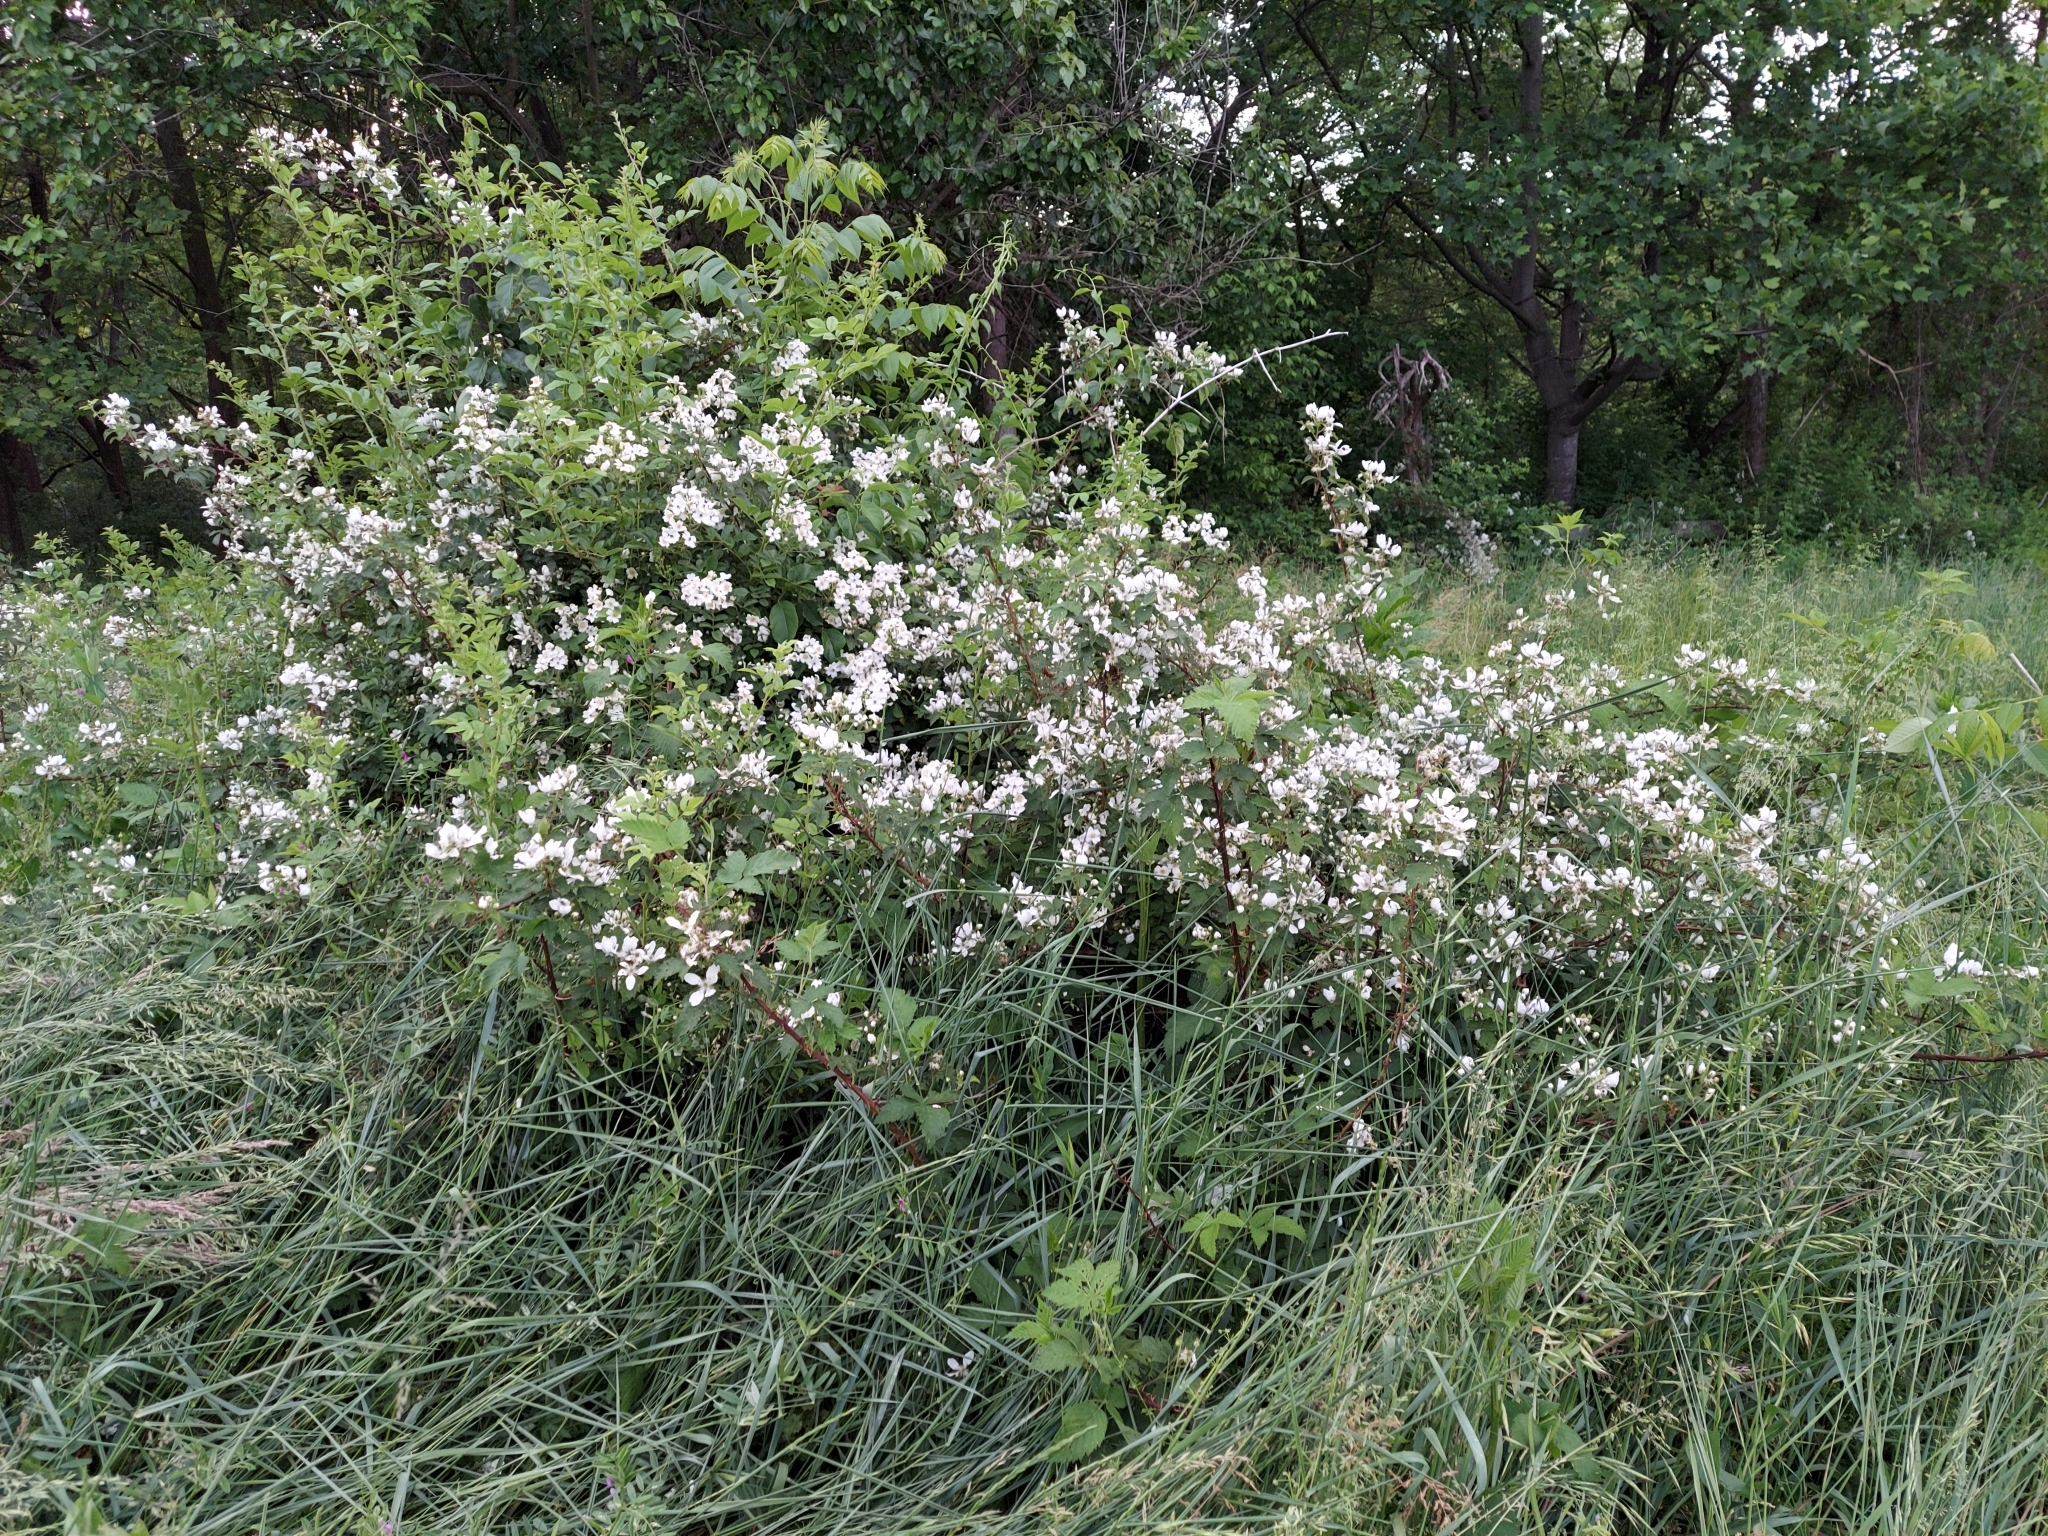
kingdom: Plantae
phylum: Tracheophyta
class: Magnoliopsida
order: Rosales
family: Rosaceae
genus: Rubus
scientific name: Rubus allegheniensis
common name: Allegheny blackberry
